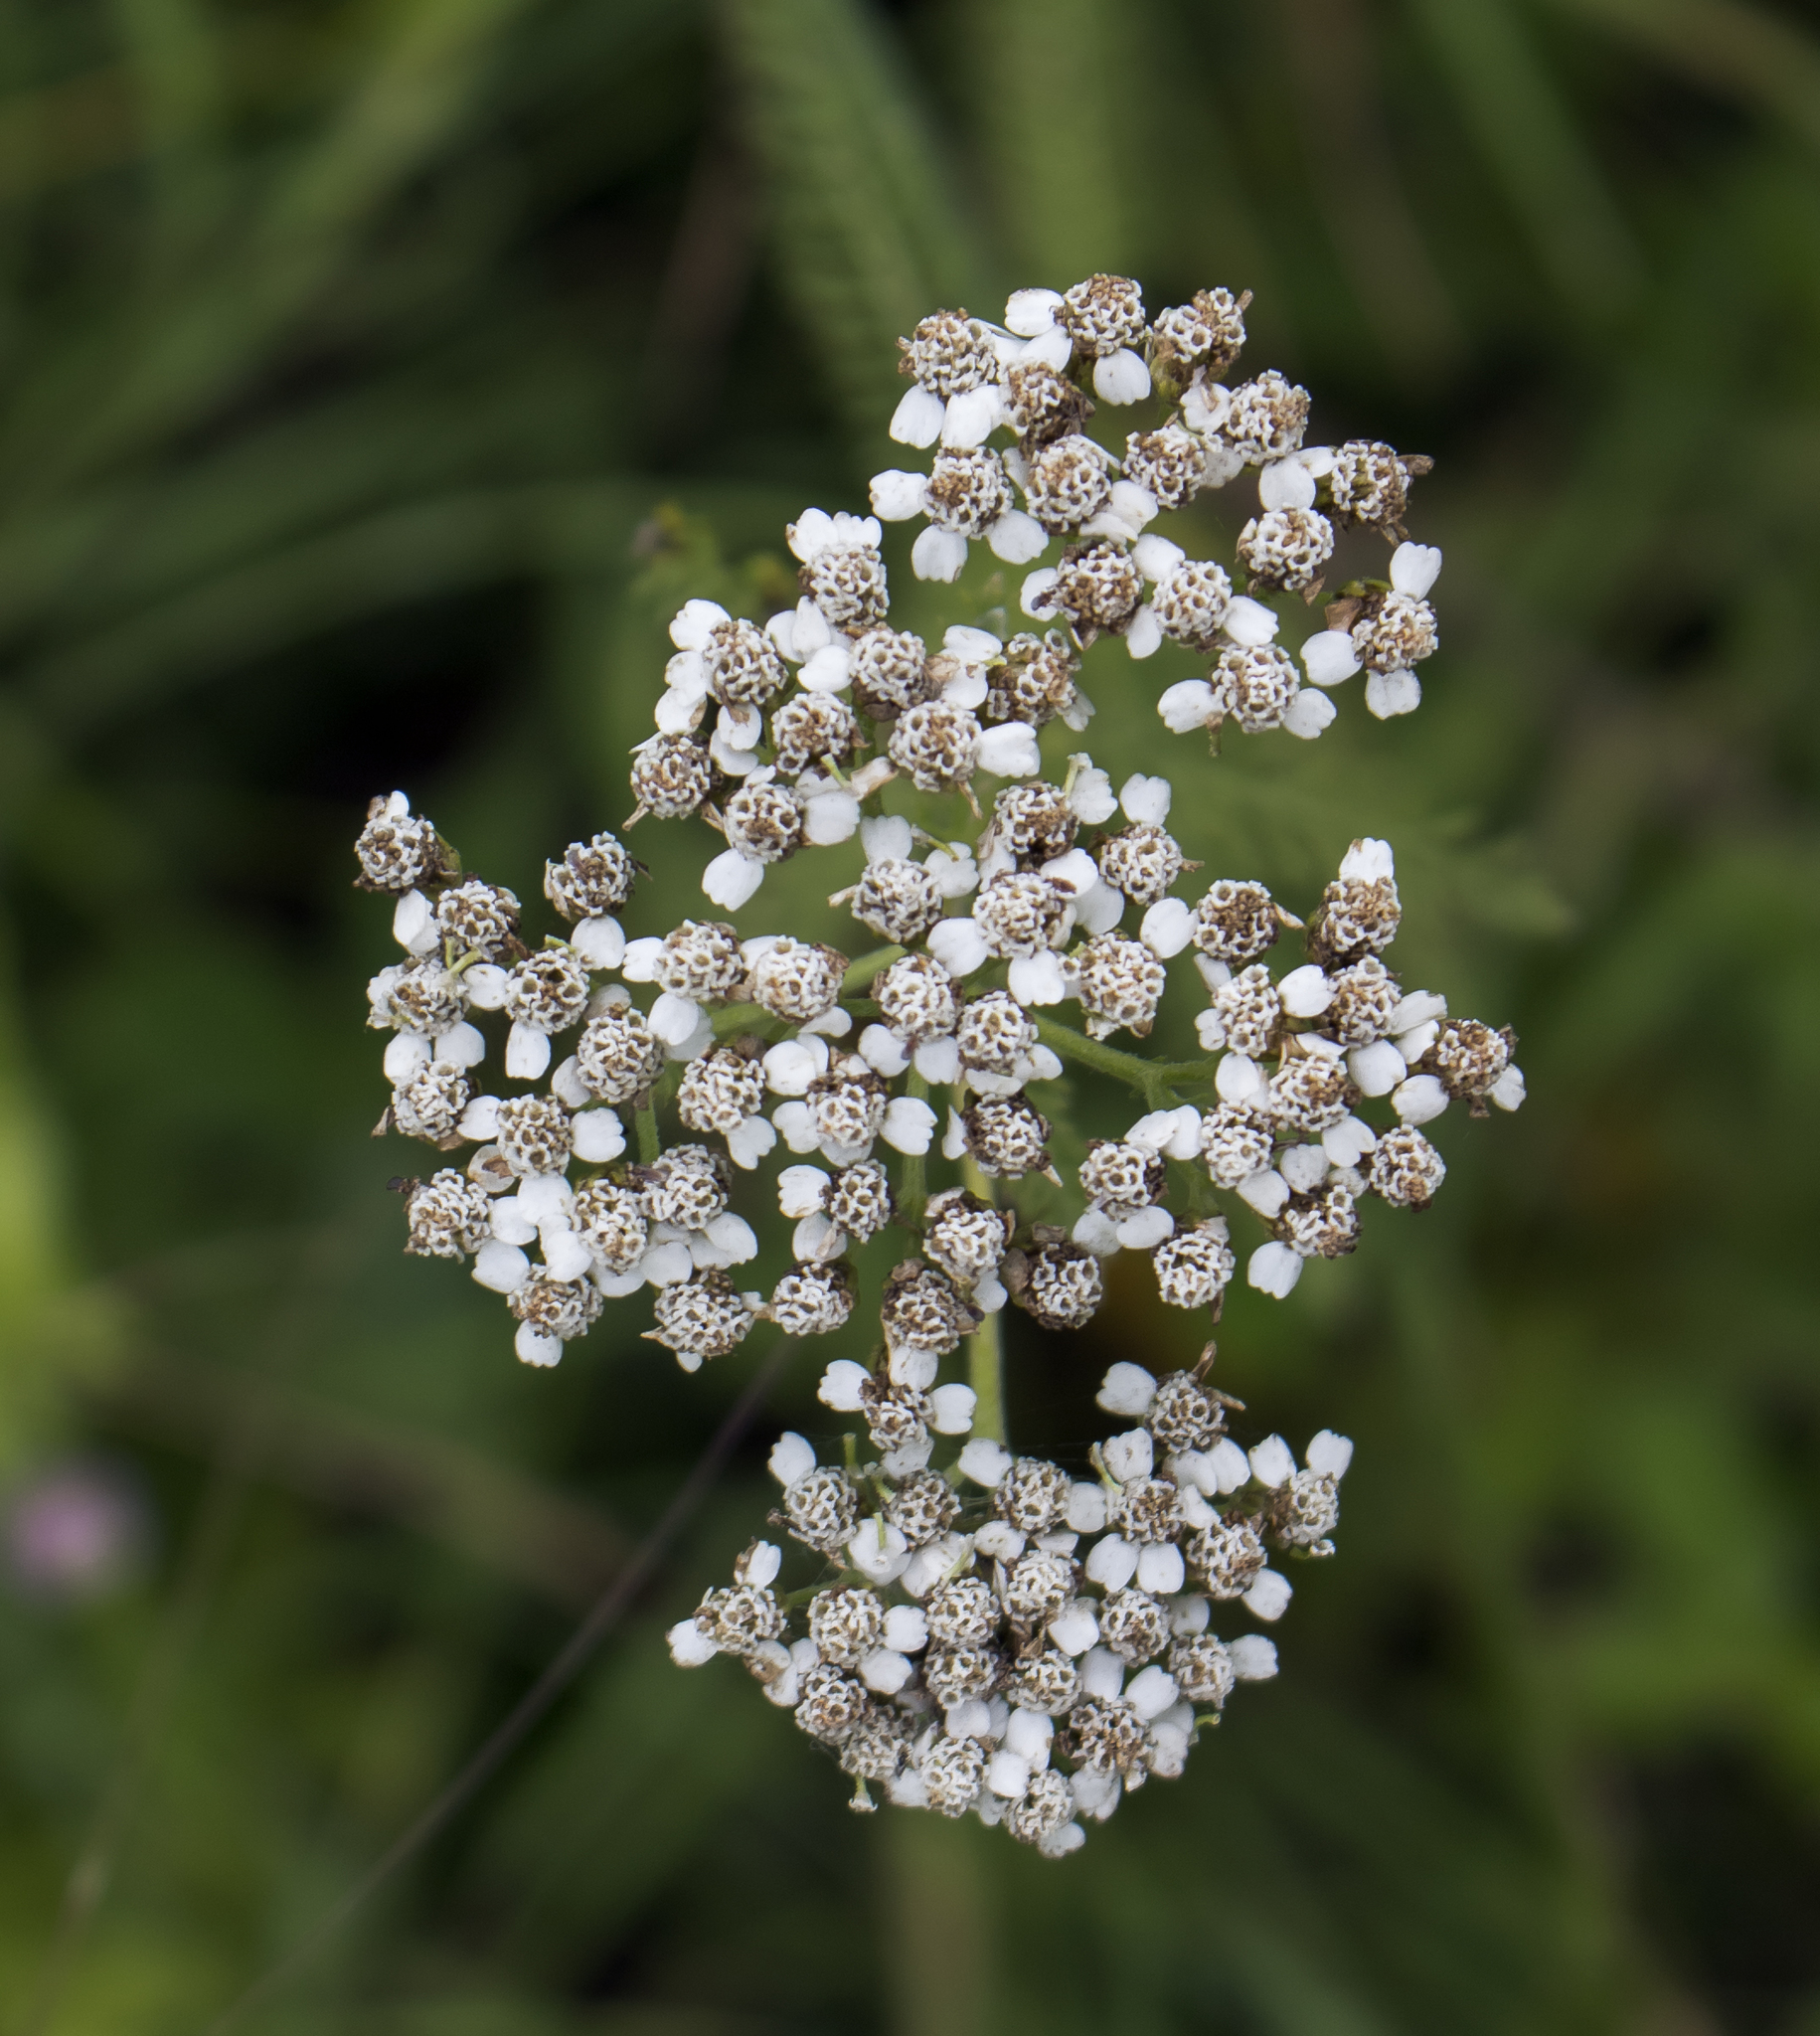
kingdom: Plantae
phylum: Tracheophyta
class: Magnoliopsida
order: Asterales
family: Asteraceae
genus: Achillea
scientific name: Achillea millefolium
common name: Yarrow
